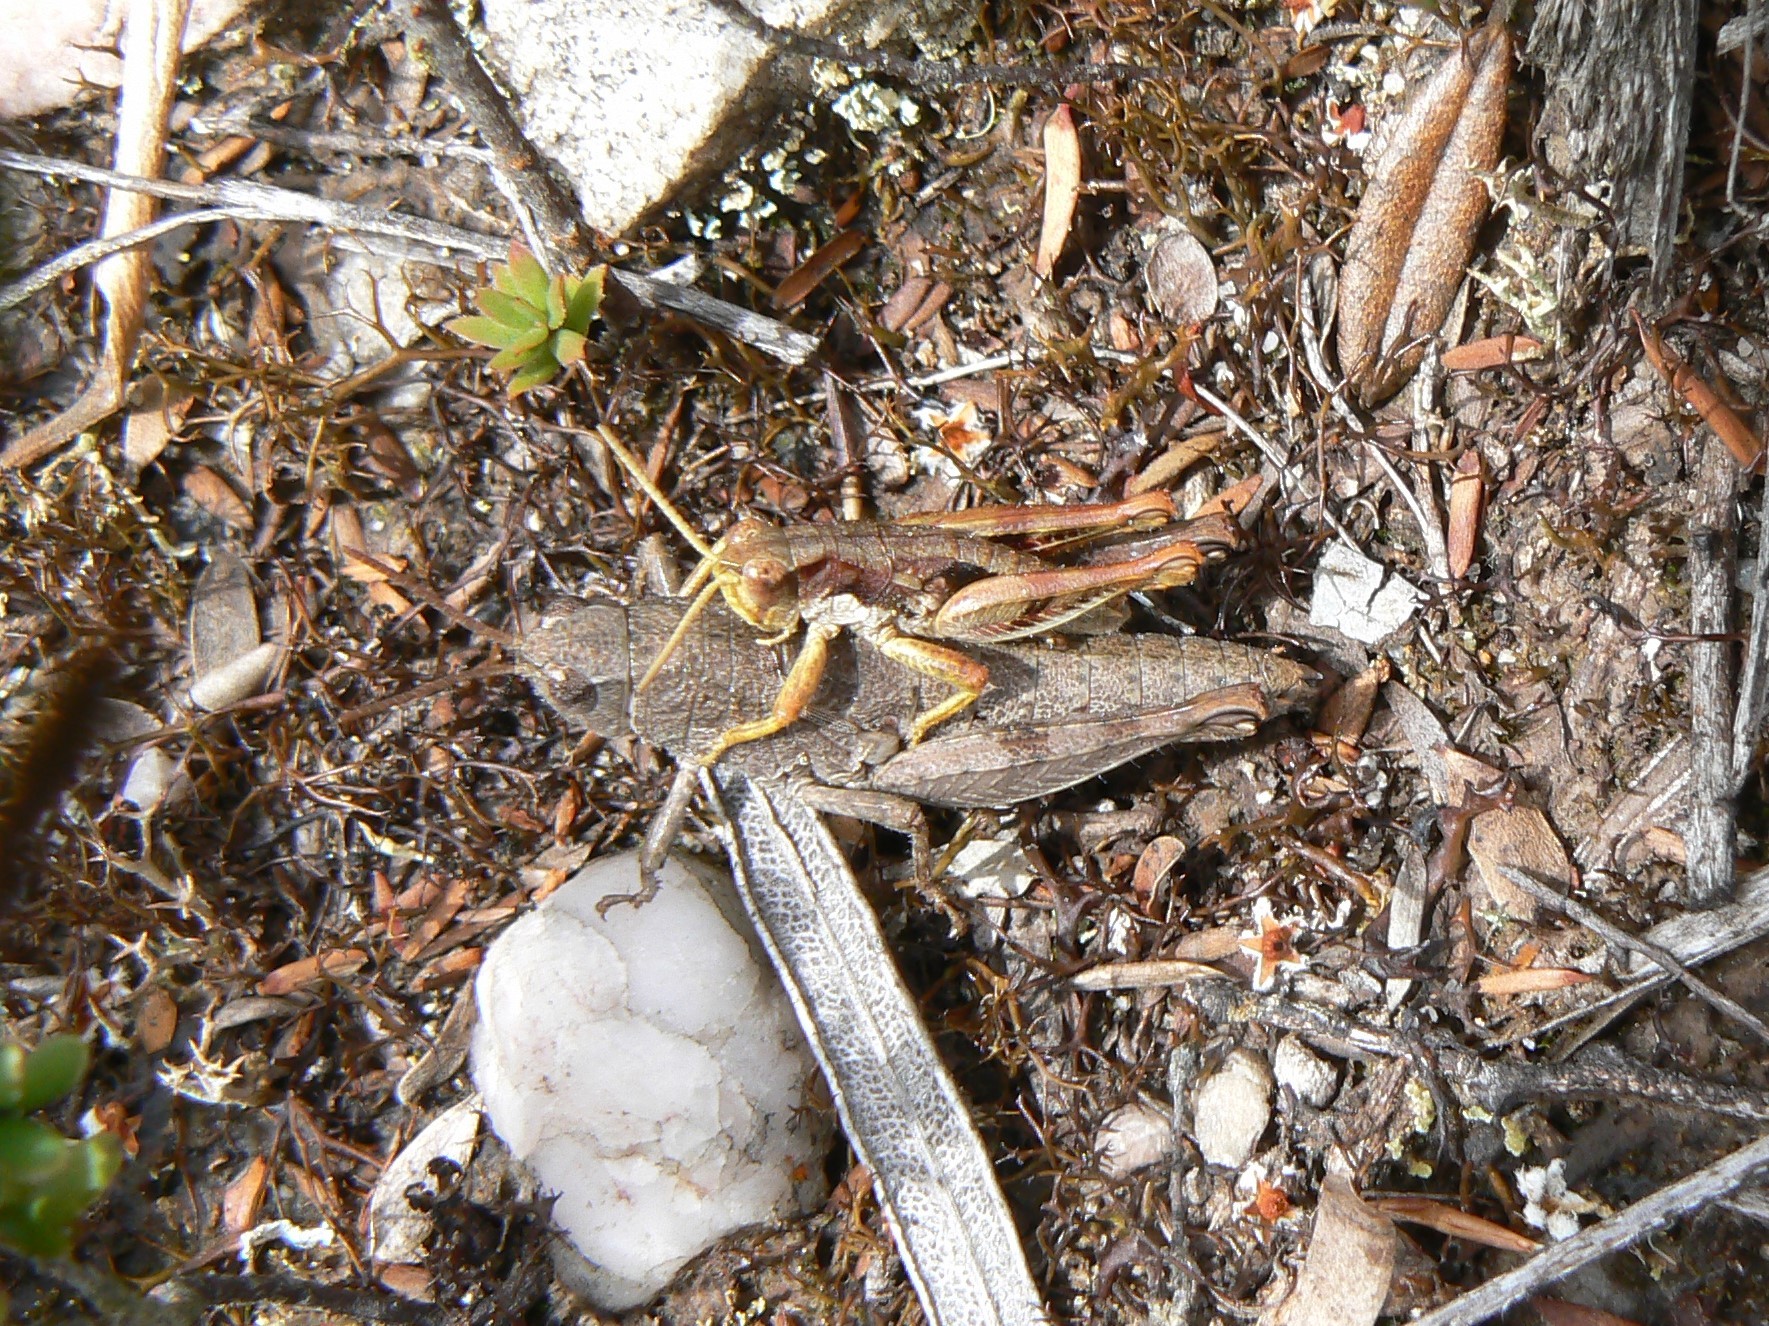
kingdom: Animalia
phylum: Arthropoda
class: Insecta
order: Orthoptera
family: Acrididae
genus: Tasmaniacris
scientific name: Tasmaniacris tasmaniensis
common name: Tasmanian grasshopper
